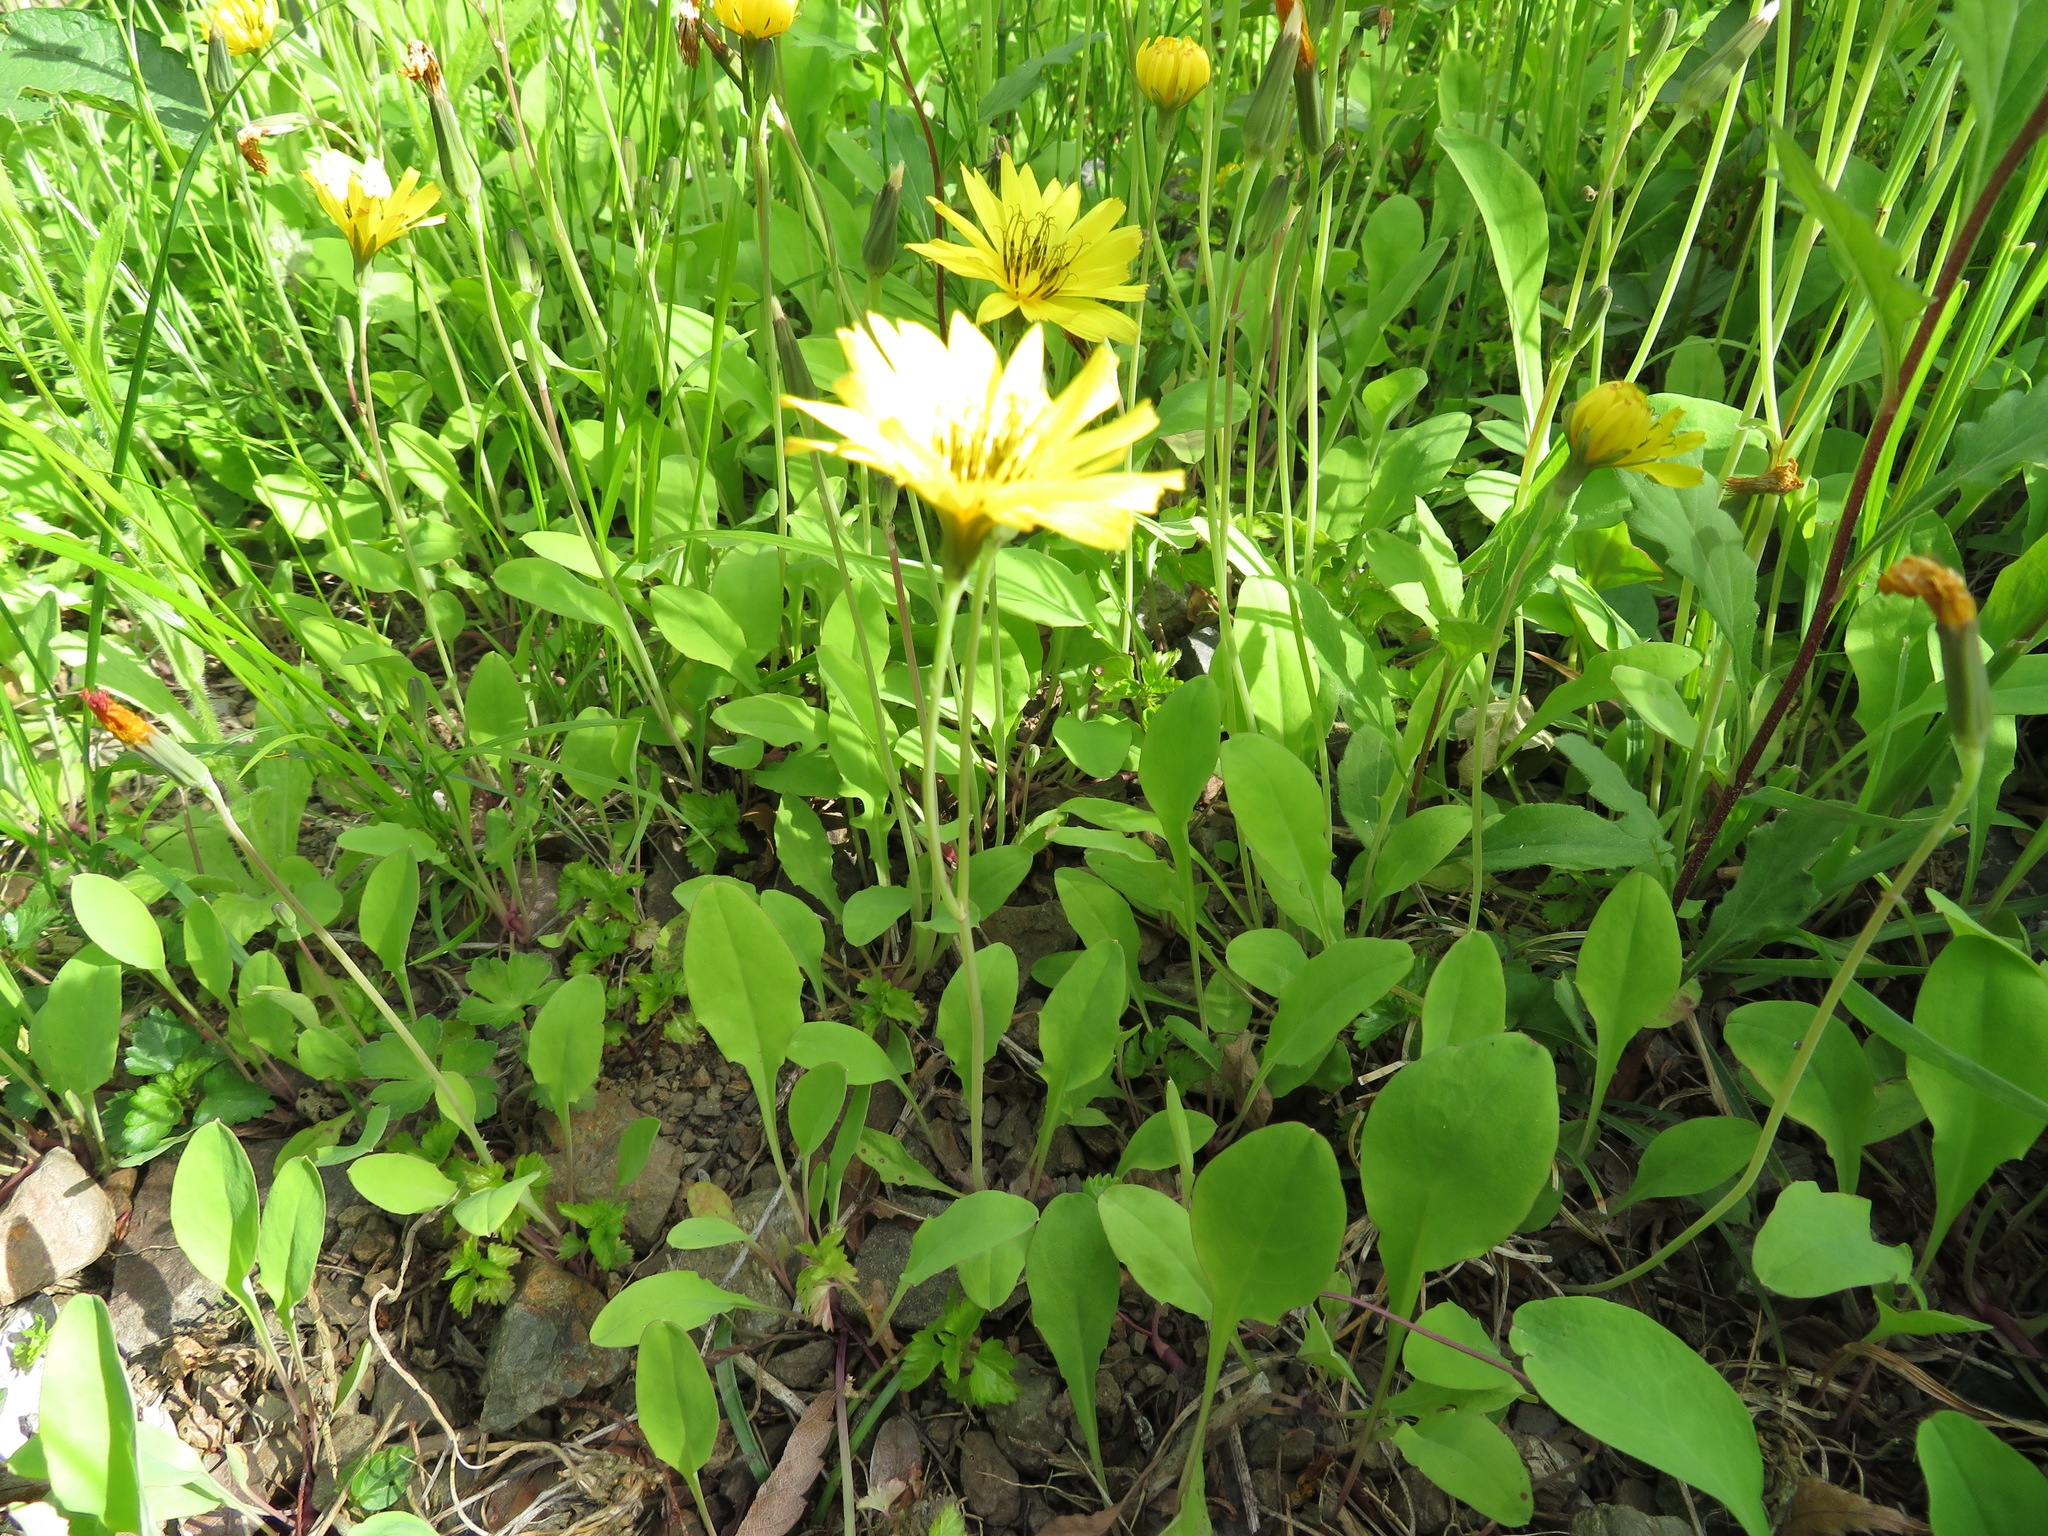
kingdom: Plantae
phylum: Tracheophyta
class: Magnoliopsida
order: Asterales
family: Asteraceae
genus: Ixeris
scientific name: Ixeris stolonifera
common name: Creeping lettuce
